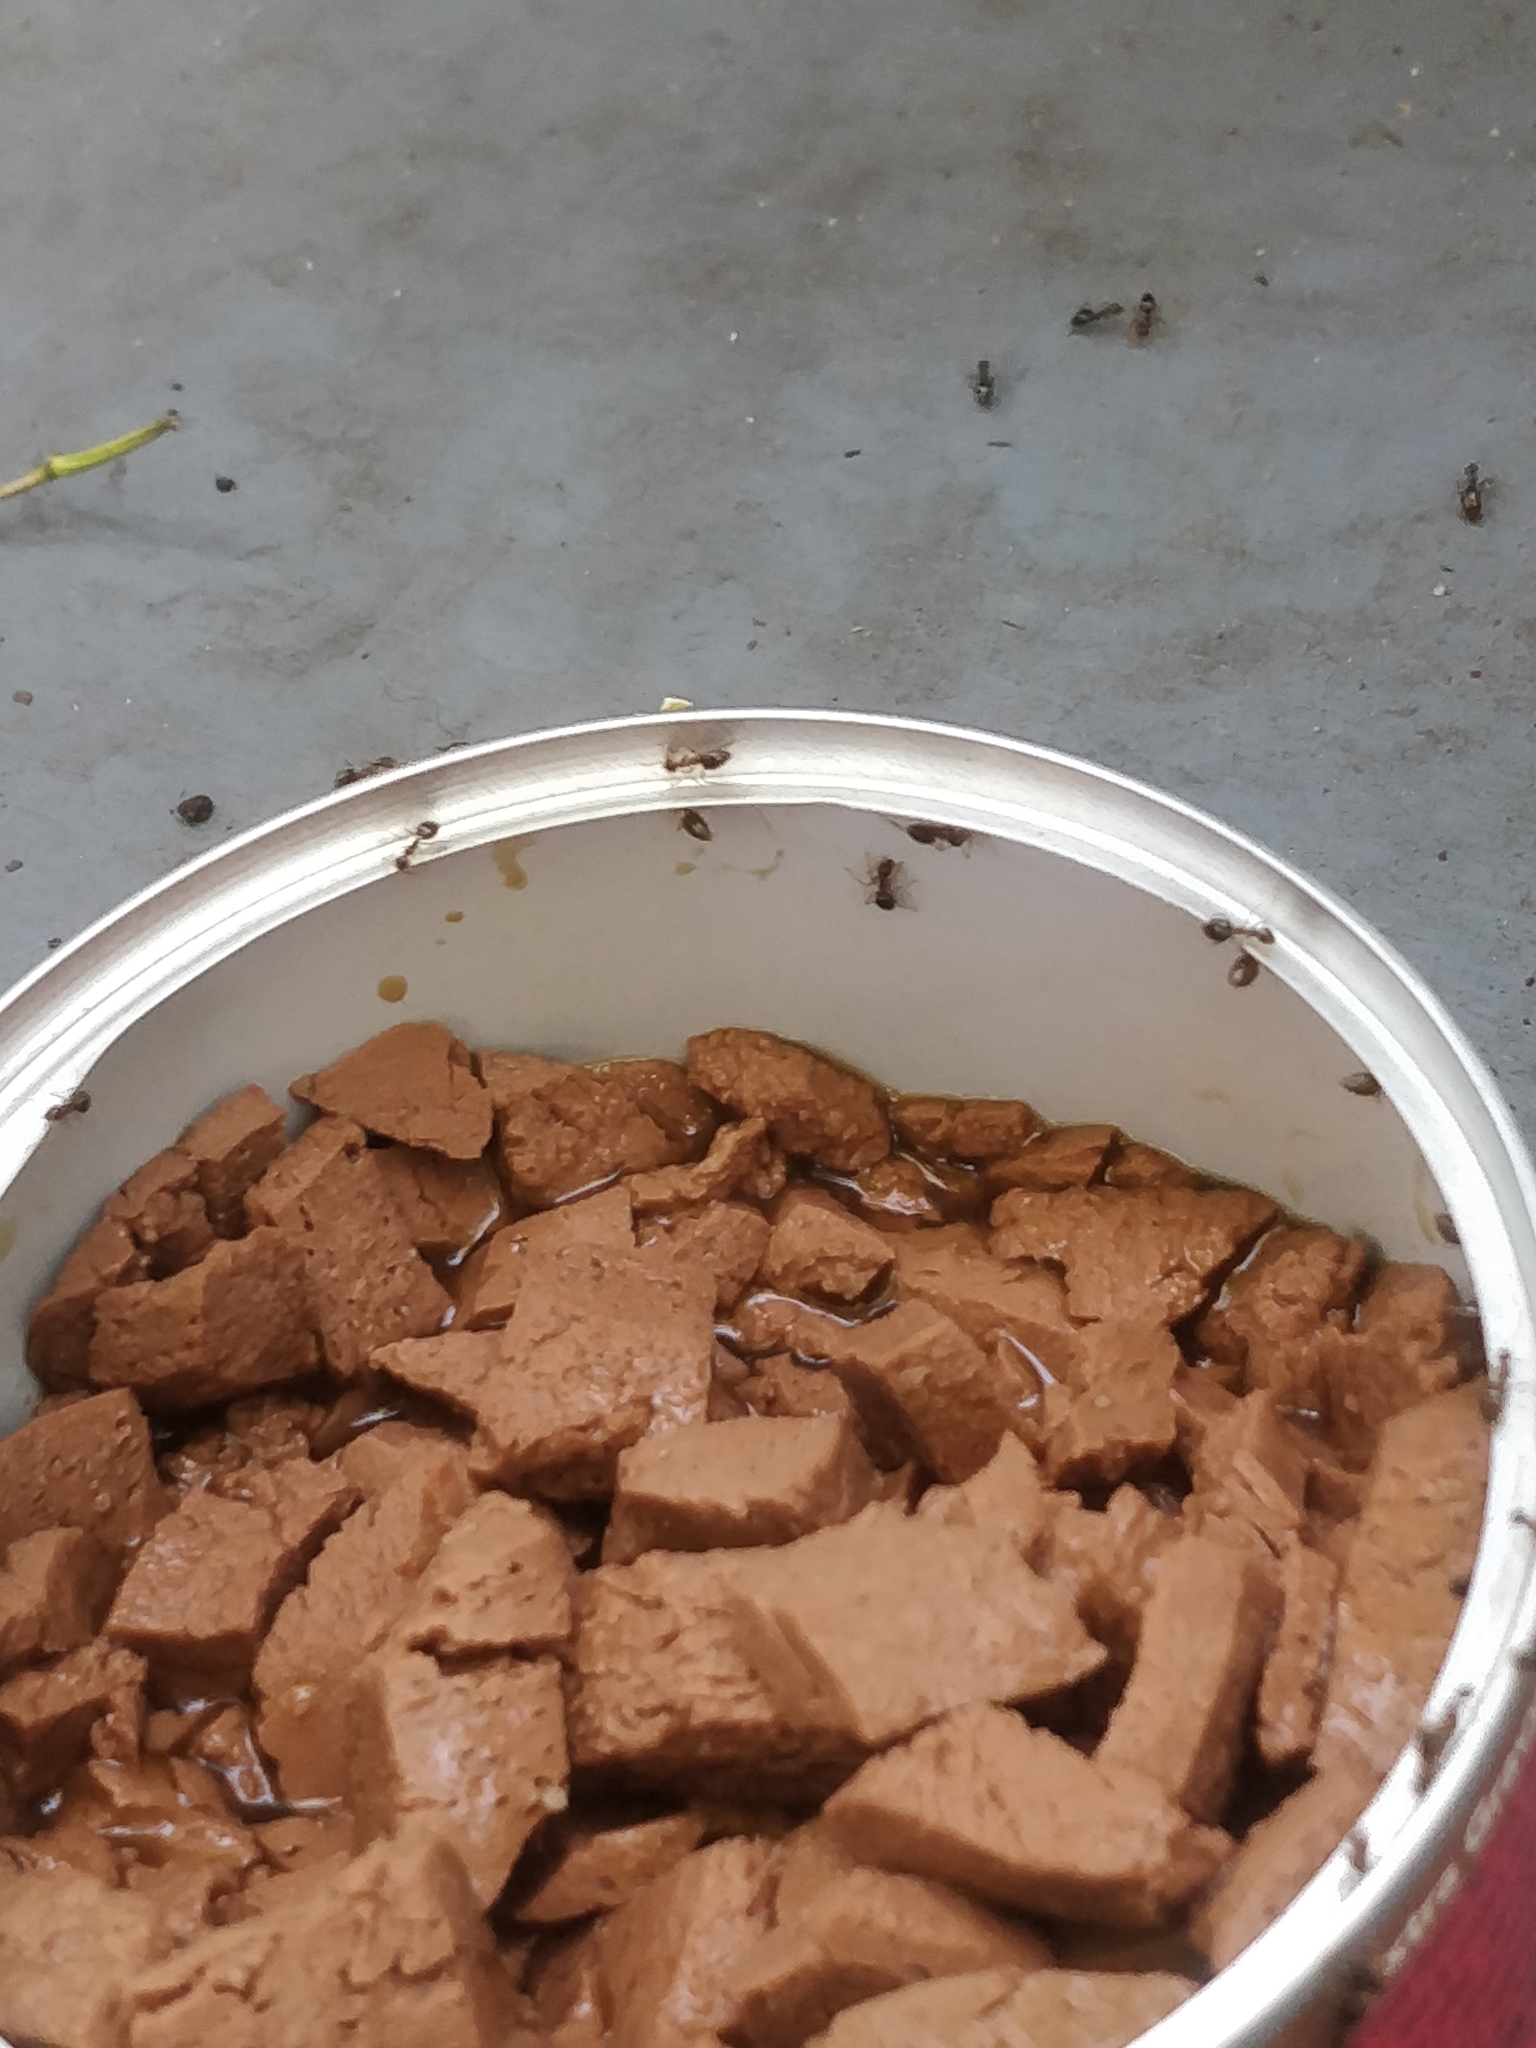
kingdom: Animalia
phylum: Arthropoda
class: Insecta
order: Hymenoptera
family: Formicidae
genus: Prenolepis
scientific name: Prenolepis imparis
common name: Small honey ant
